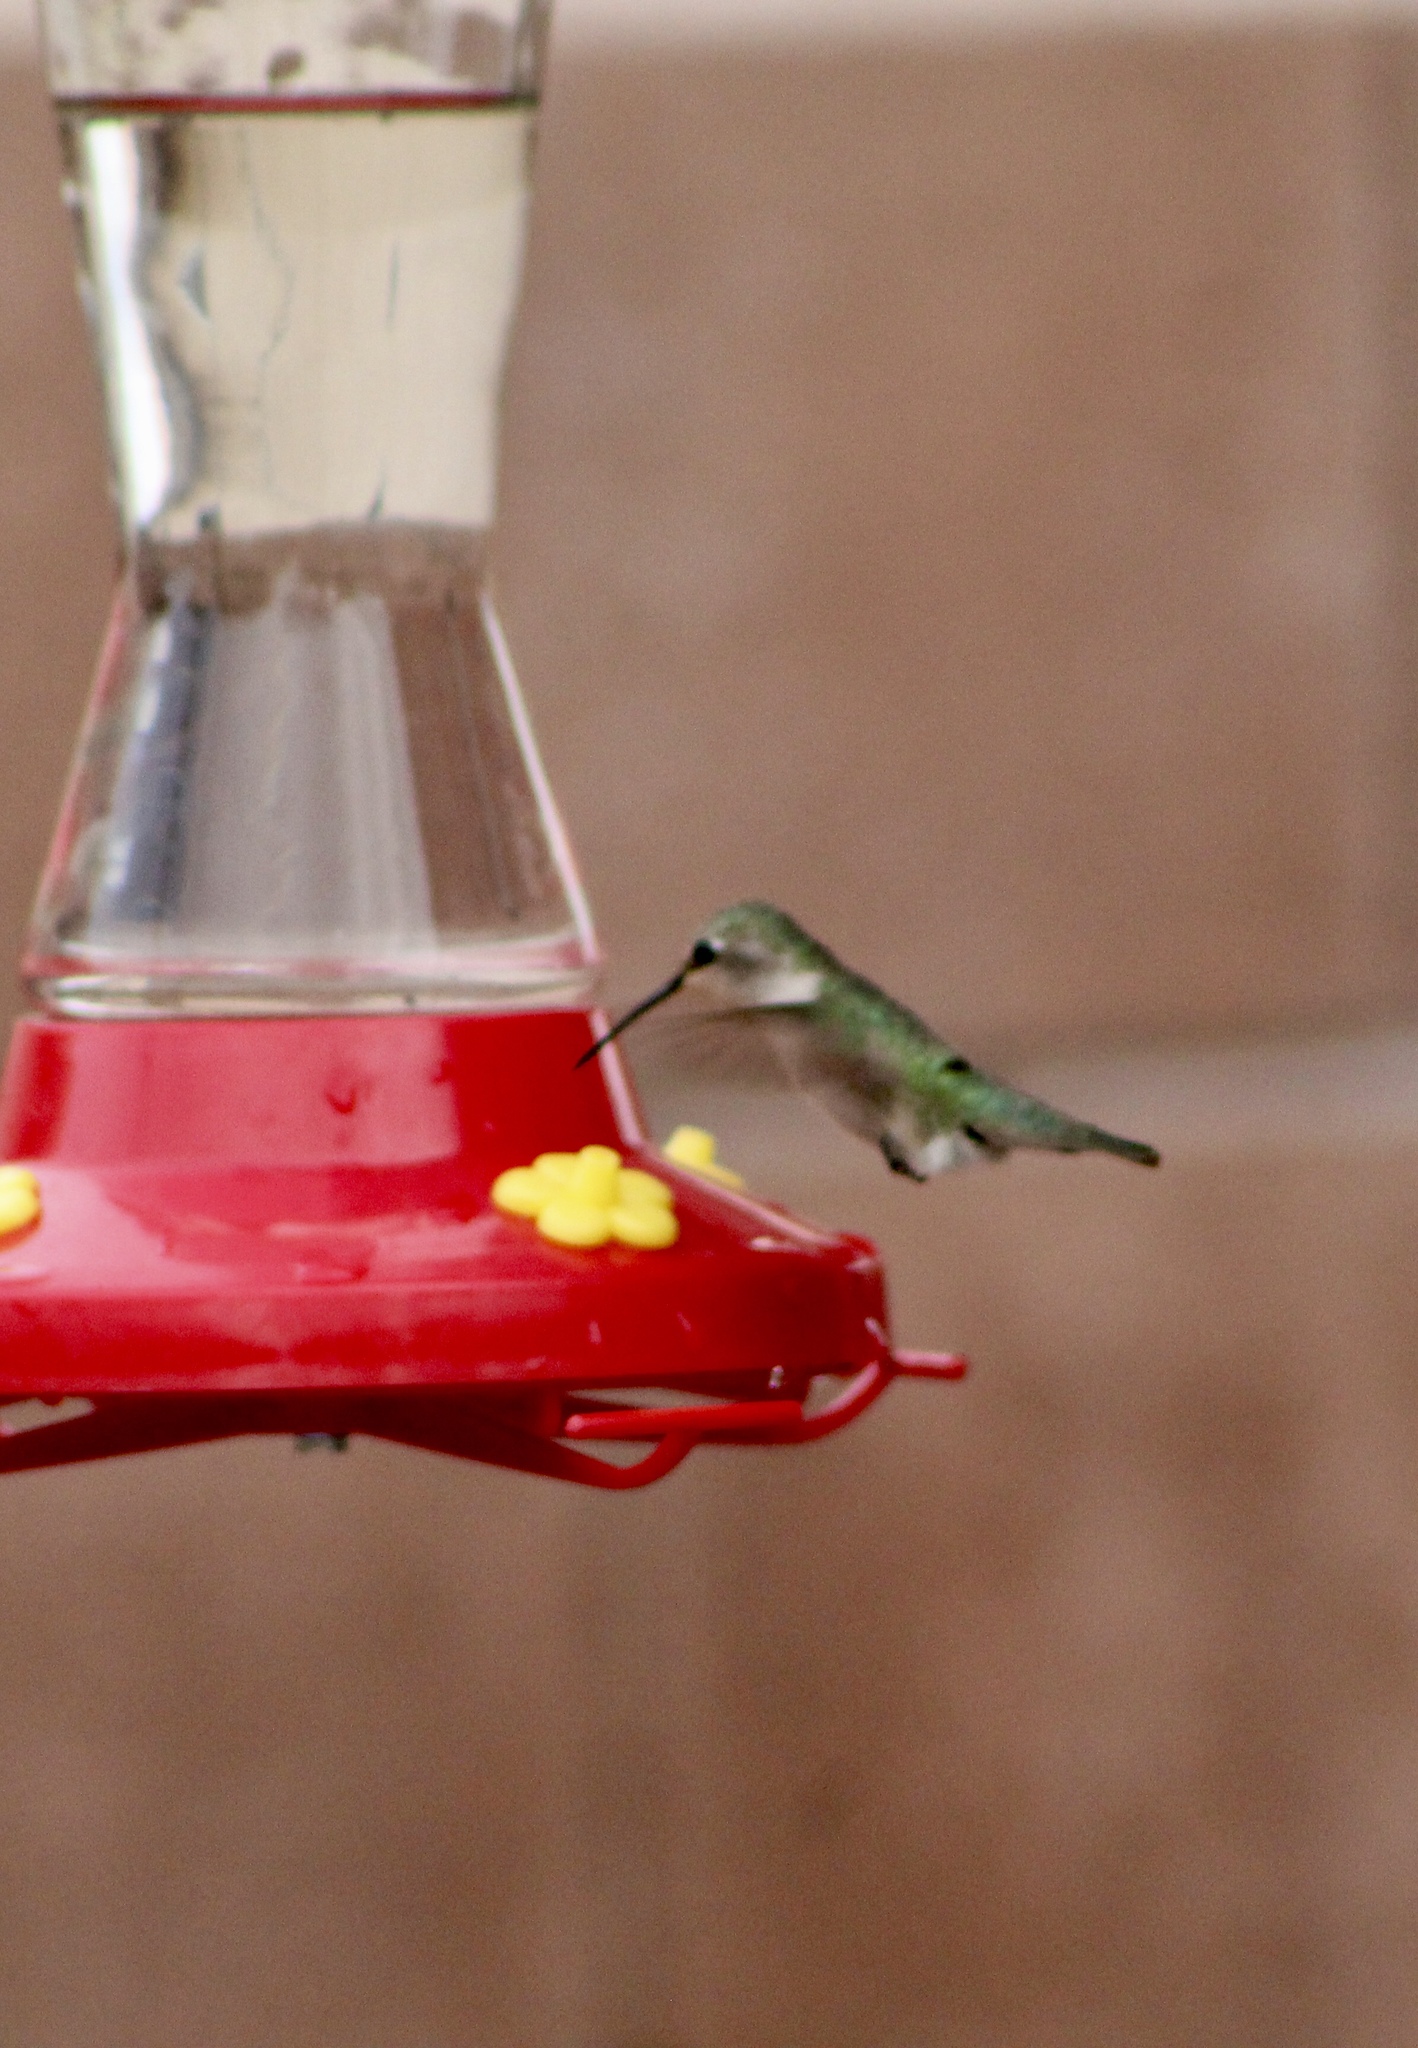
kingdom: Animalia
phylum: Chordata
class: Aves
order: Apodiformes
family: Trochilidae
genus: Calypte
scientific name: Calypte anna
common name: Anna's hummingbird
